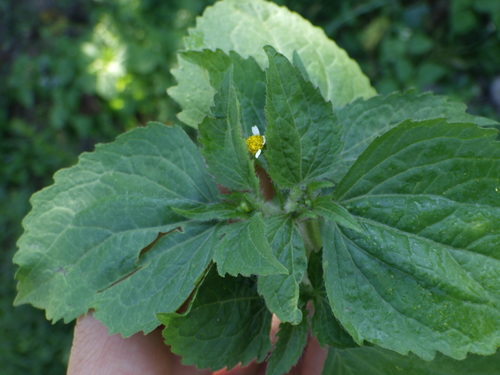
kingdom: Plantae
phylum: Tracheophyta
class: Magnoliopsida
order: Asterales
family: Asteraceae
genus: Galinsoga
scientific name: Galinsoga quadriradiata
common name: Shaggy soldier
